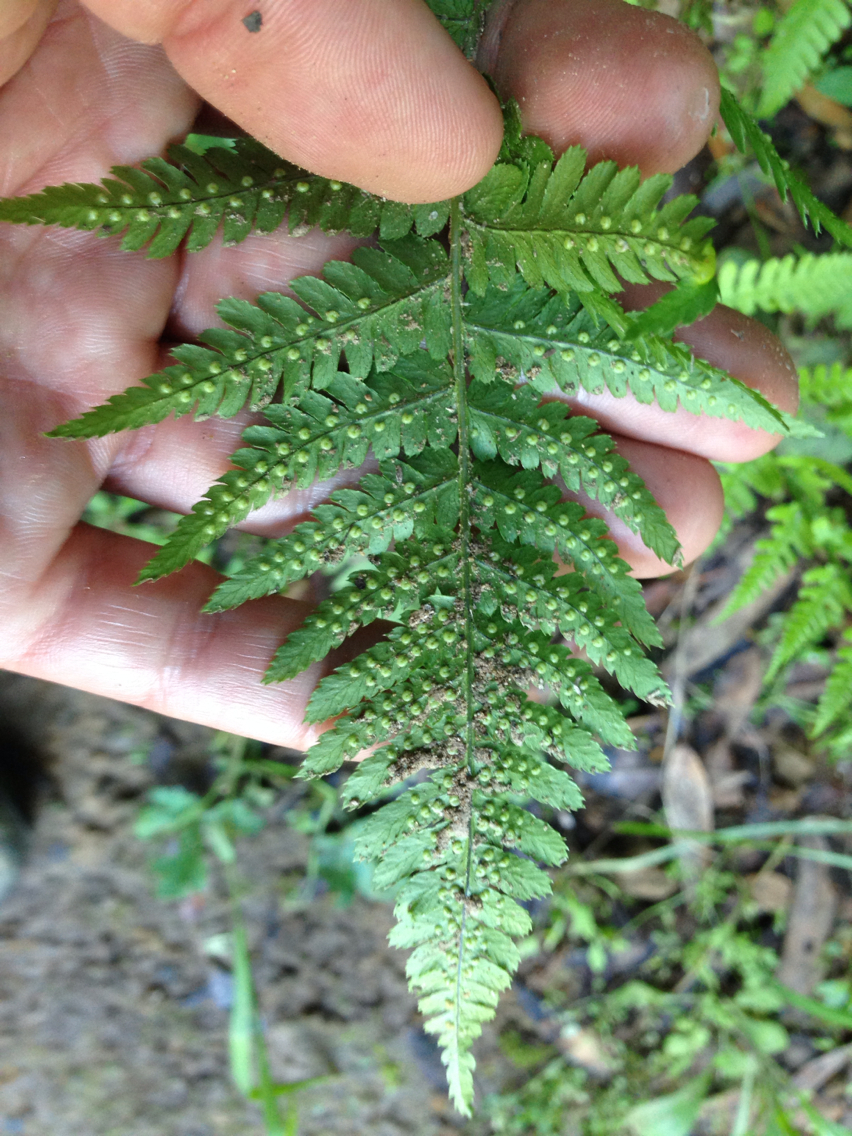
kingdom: Plantae
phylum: Tracheophyta
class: Polypodiopsida
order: Polypodiales
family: Dryopteridaceae
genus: Dryopteris
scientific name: Dryopteris arguta
